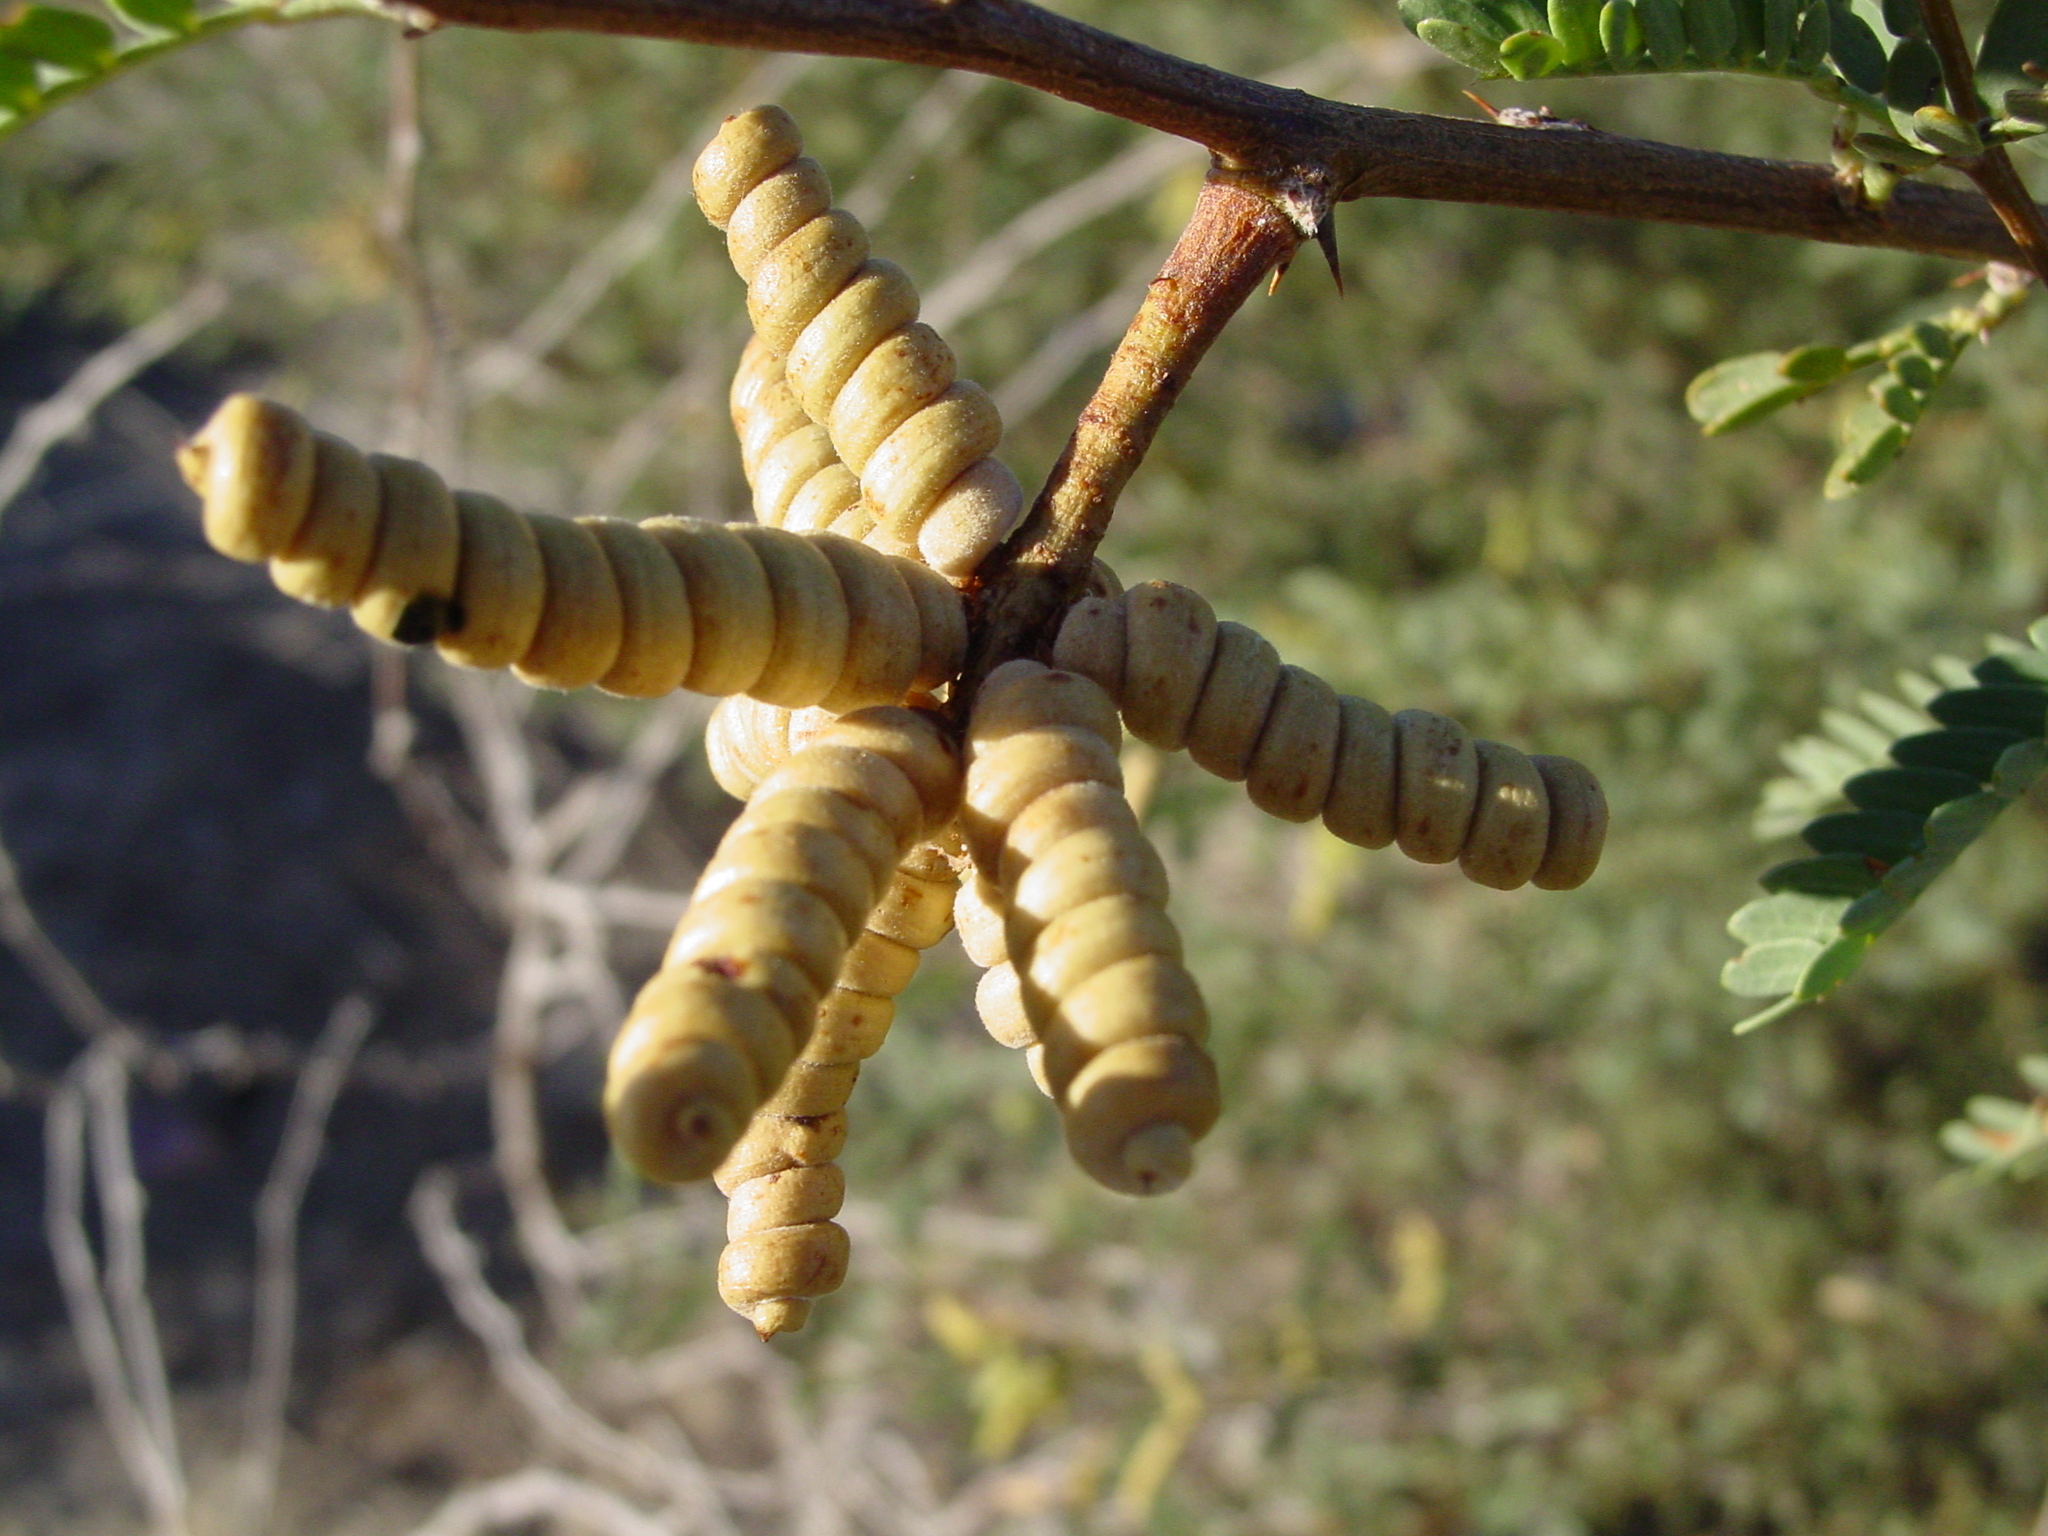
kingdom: Plantae
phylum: Tracheophyta
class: Magnoliopsida
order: Fabales
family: Fabaceae
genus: Prosopis
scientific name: Prosopis pubescens
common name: Screw-bean
